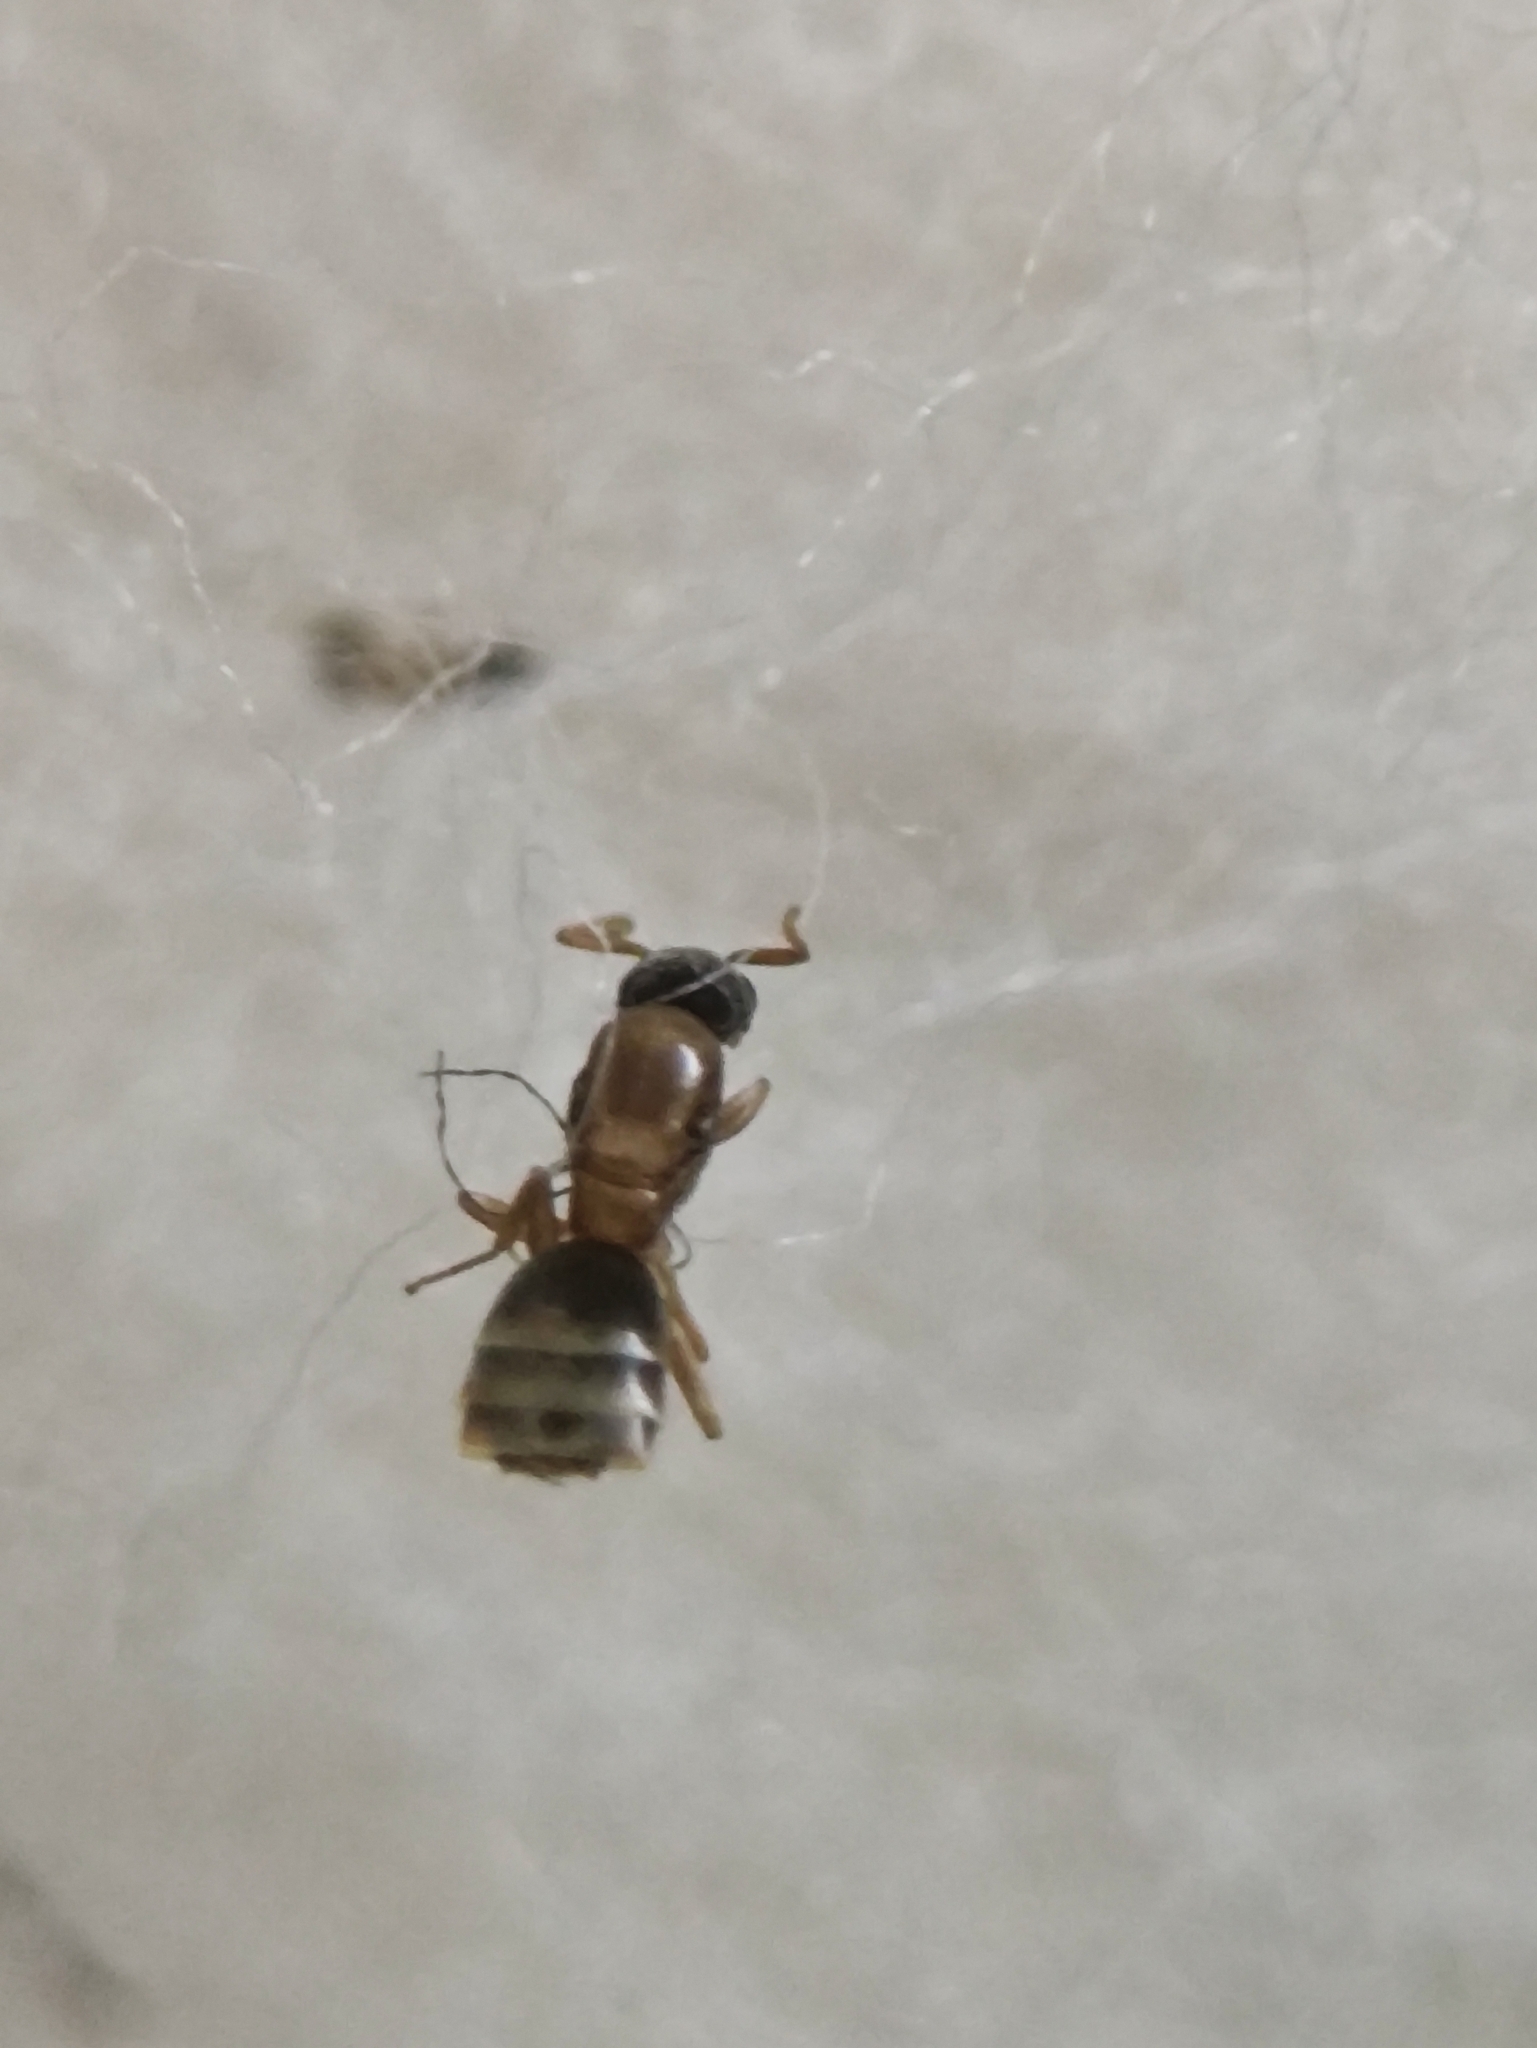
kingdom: Animalia
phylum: Arthropoda
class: Insecta
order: Hymenoptera
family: Formicidae
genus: Tapinoma
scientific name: Tapinoma melanocephalum
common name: Ghost ant
